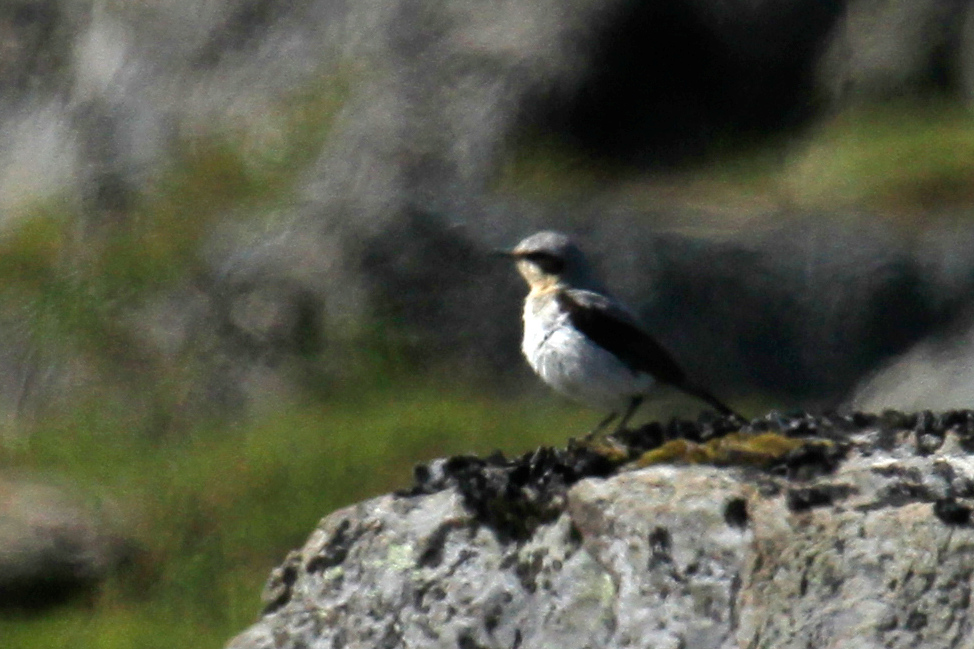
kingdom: Animalia
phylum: Chordata
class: Aves
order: Passeriformes
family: Muscicapidae
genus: Oenanthe
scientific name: Oenanthe oenanthe
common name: Northern wheatear
